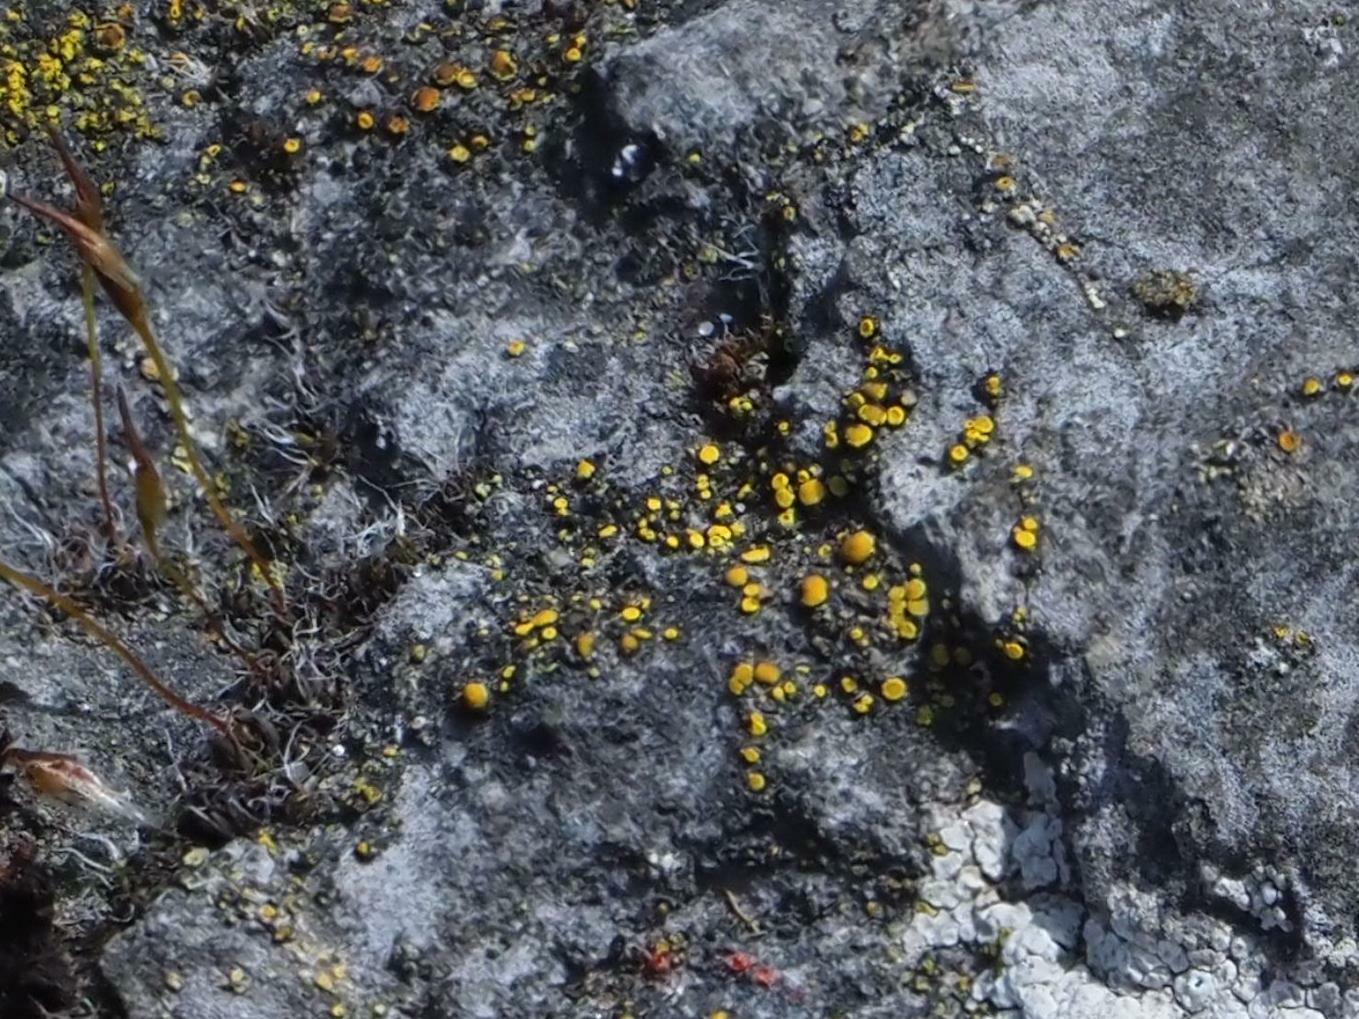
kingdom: Fungi
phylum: Ascomycota
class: Candelariomycetes
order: Candelariales
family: Candelariaceae
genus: Candelariella
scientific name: Candelariella aurella
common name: Hidden goldspeck lichen
